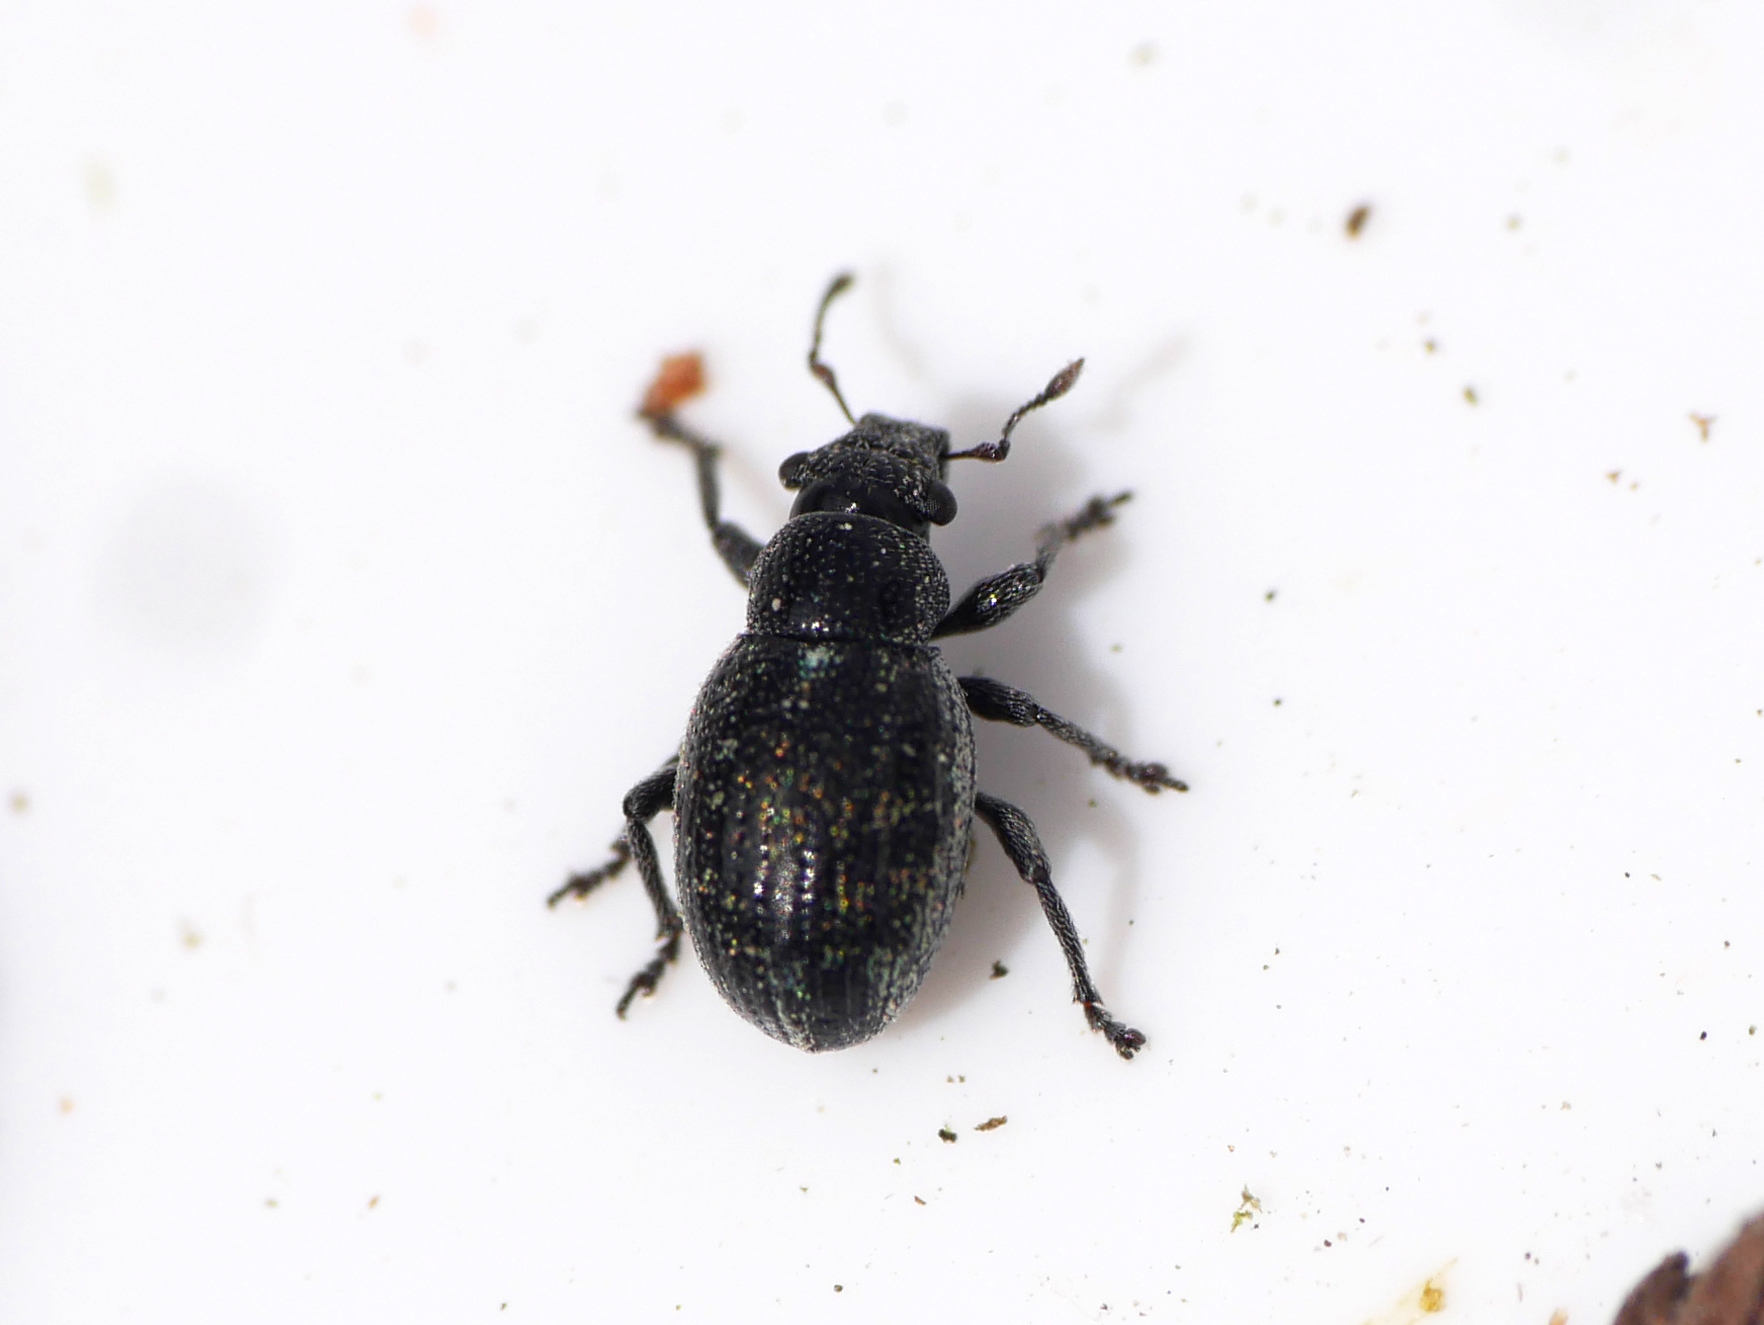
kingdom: Animalia
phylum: Arthropoda
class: Insecta
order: Coleoptera
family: Curculionidae
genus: Strophosoma
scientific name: Strophosoma sus
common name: Heather weevil
